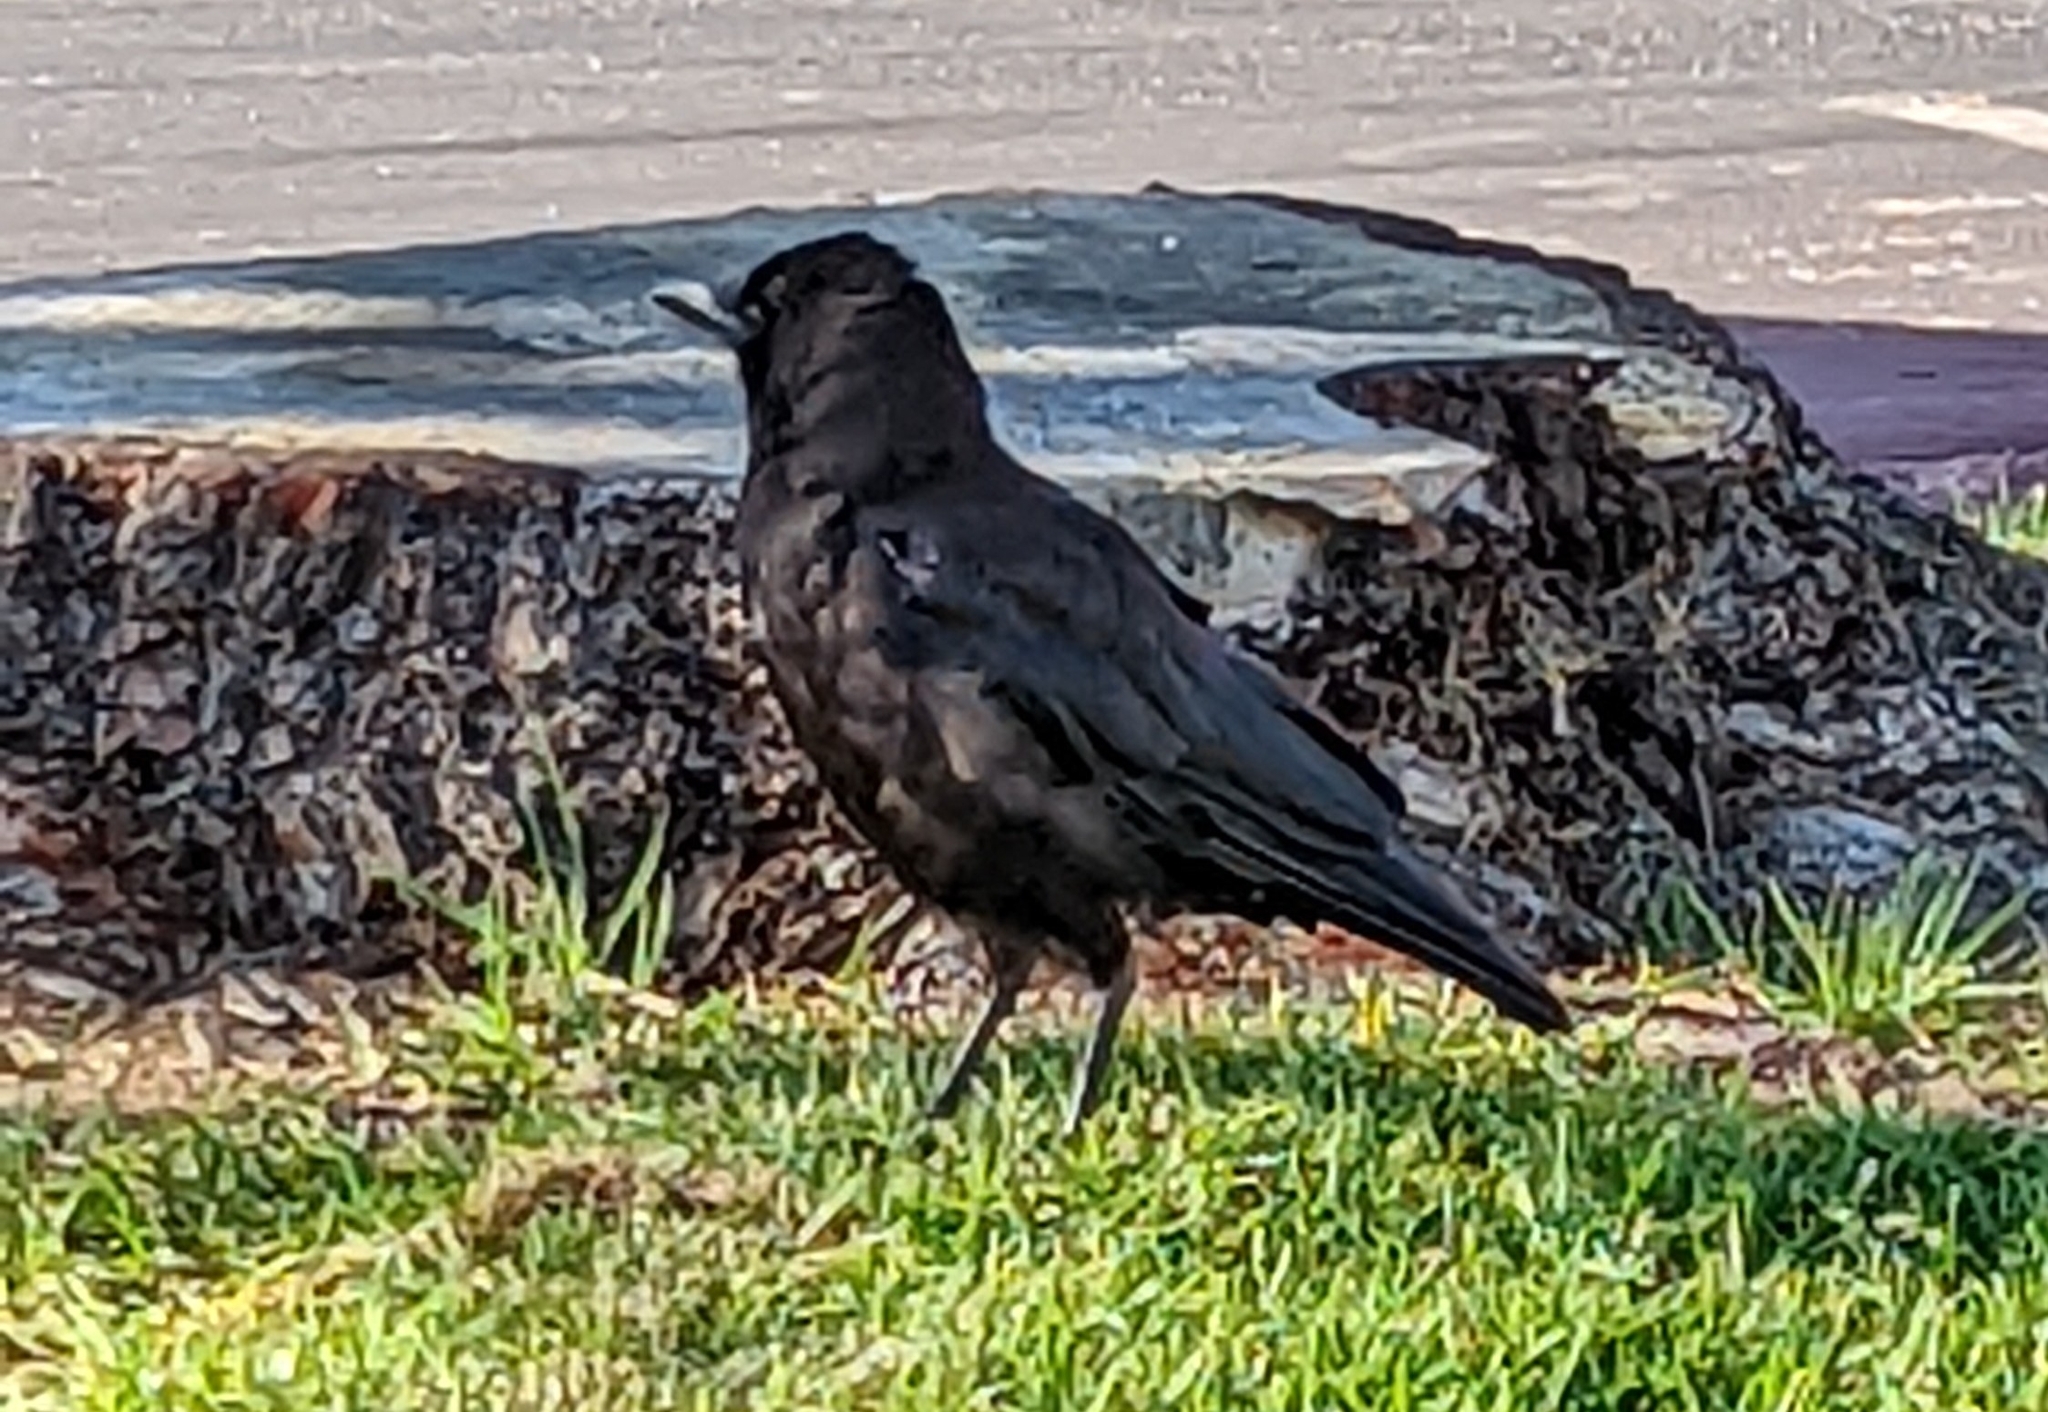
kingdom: Animalia
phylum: Chordata
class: Aves
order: Passeriformes
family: Corvidae
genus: Corvus
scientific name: Corvus brachyrhynchos
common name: American crow
